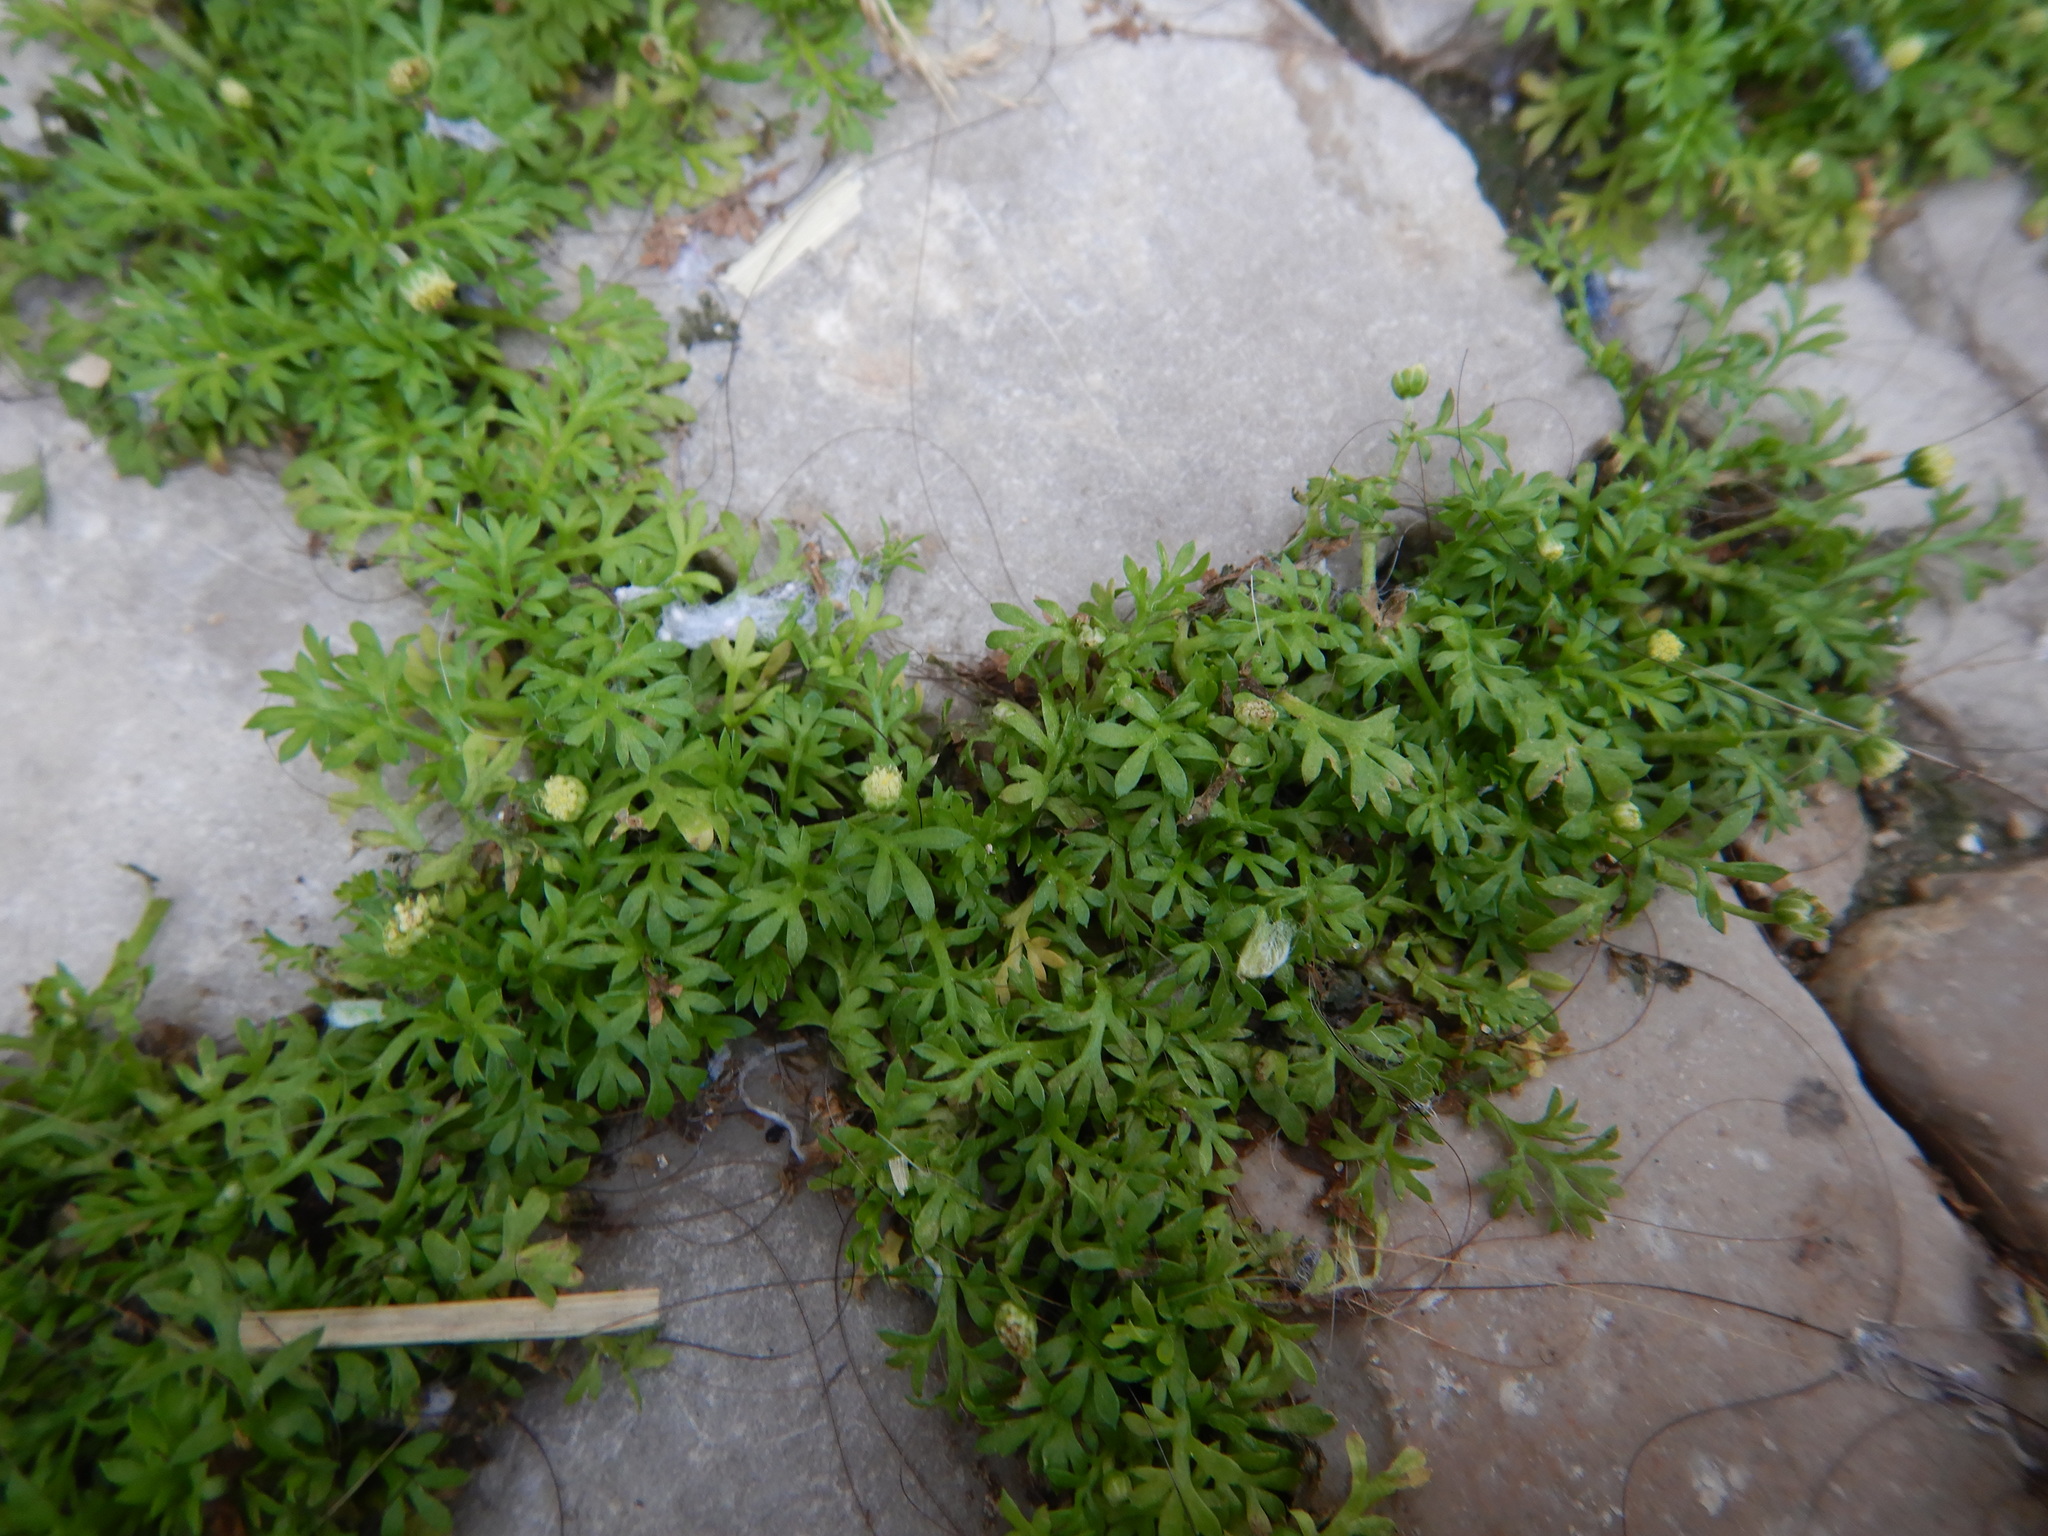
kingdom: Plantae
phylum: Tracheophyta
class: Magnoliopsida
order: Asterales
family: Asteraceae
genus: Cotula
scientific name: Cotula australis
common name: Australian waterbuttons
